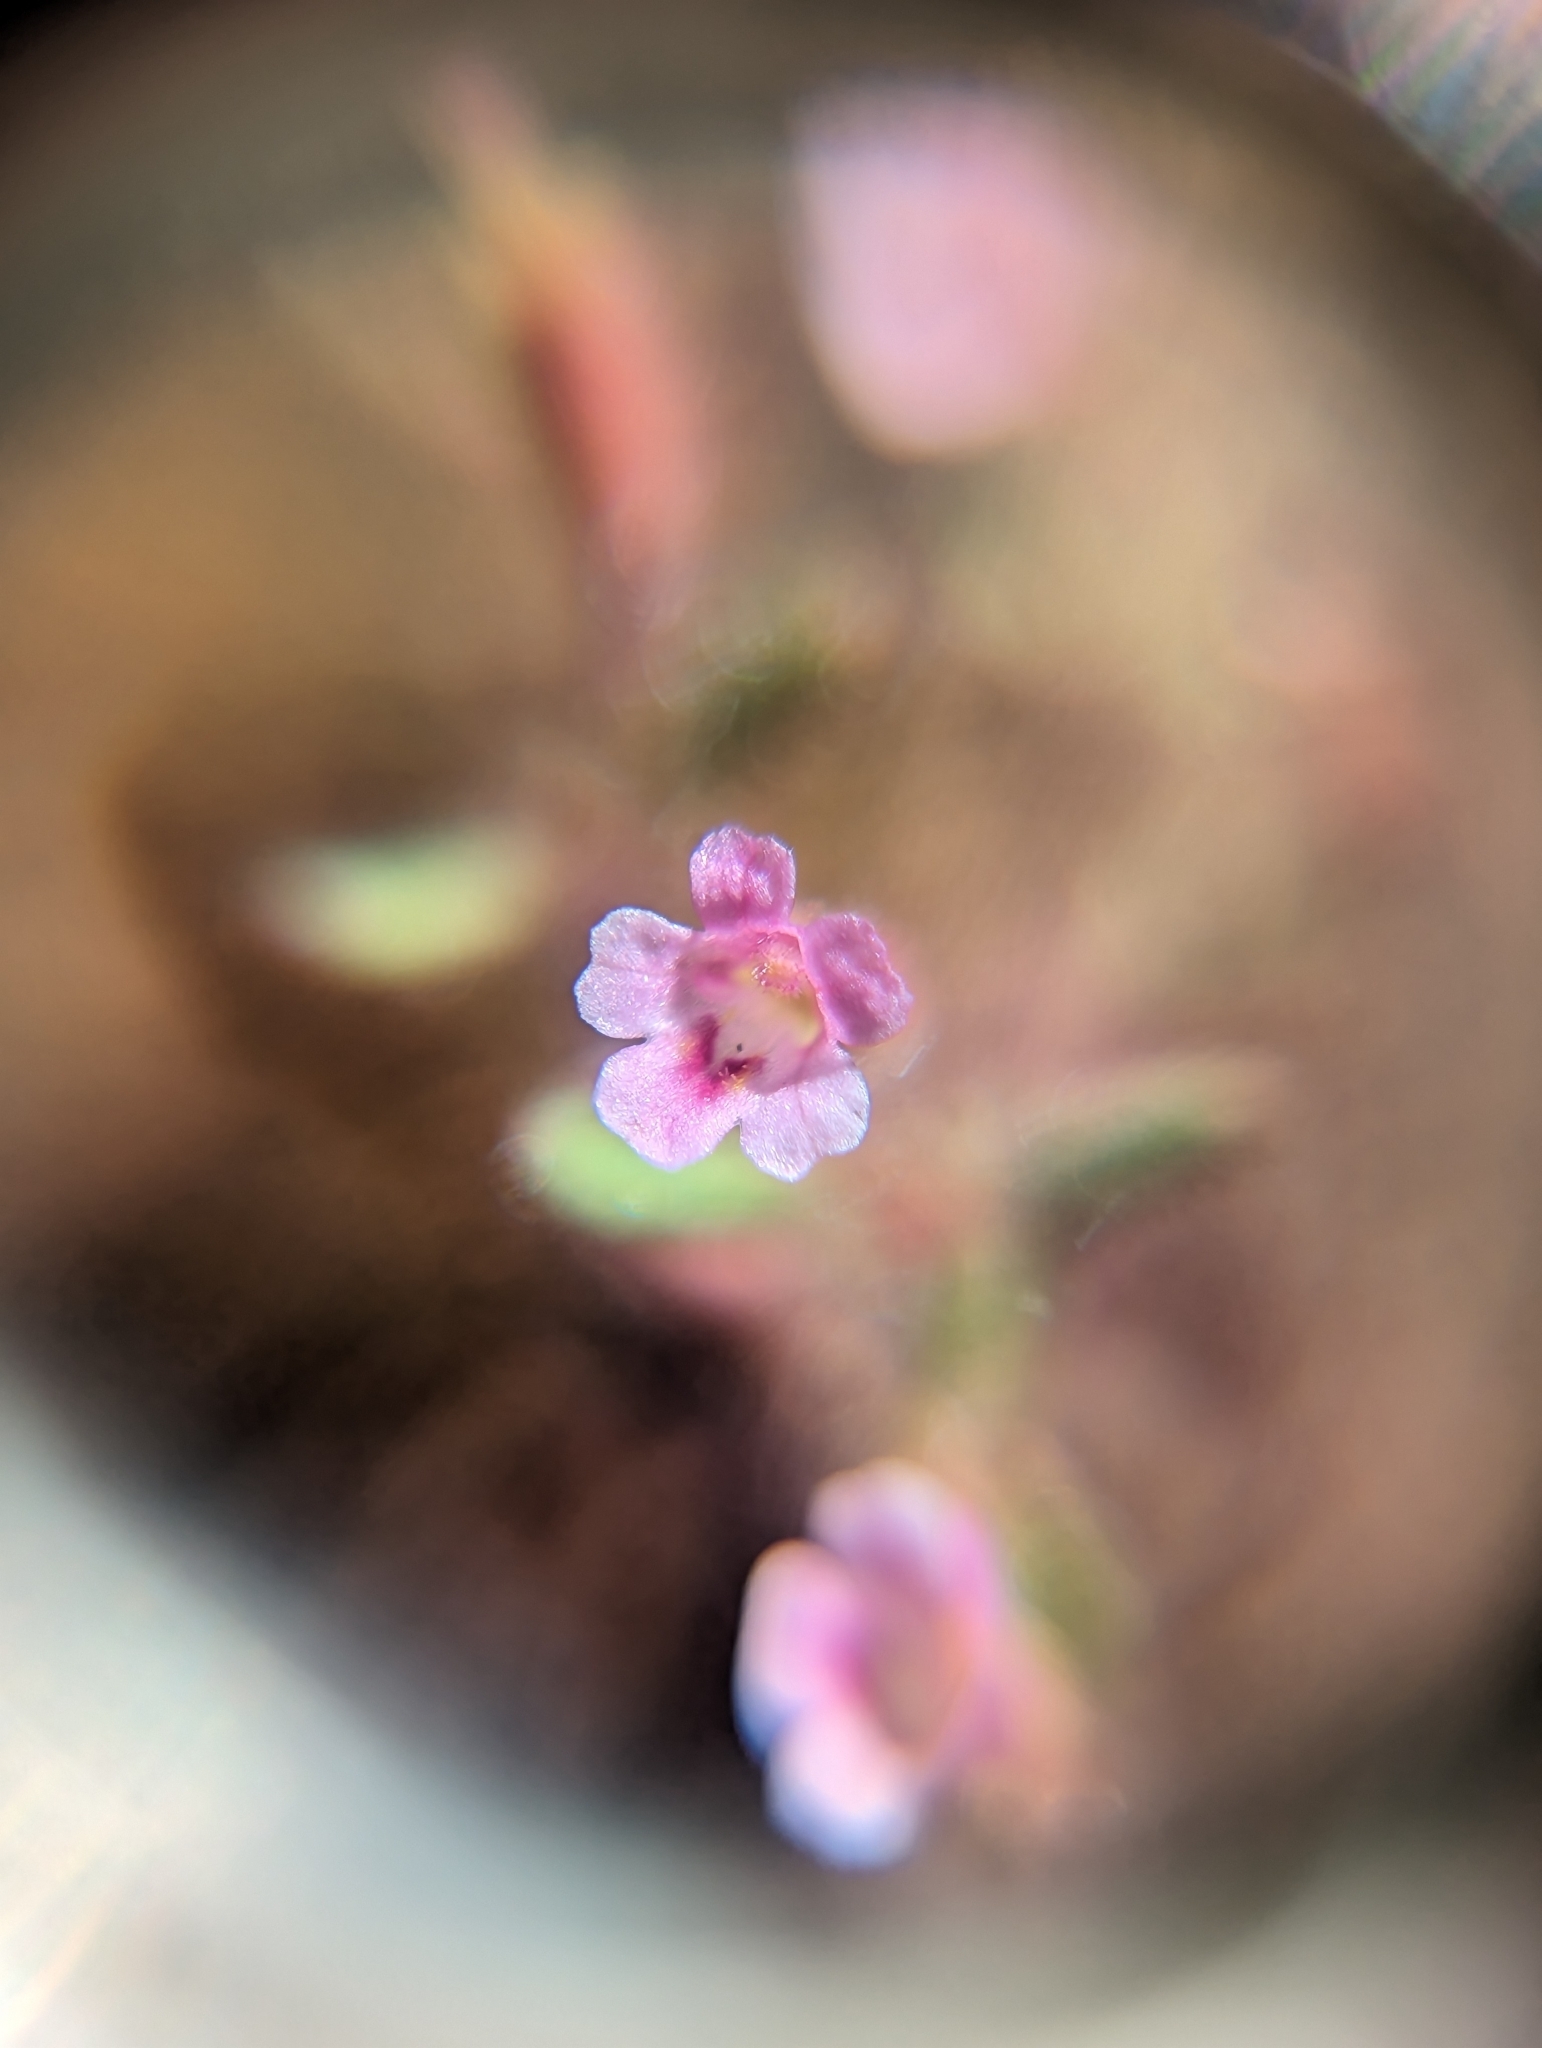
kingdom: Plantae
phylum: Tracheophyta
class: Magnoliopsida
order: Lamiales
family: Phrymaceae
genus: Erythranthe
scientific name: Erythranthe breweri
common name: Brewer's monkeyflower
